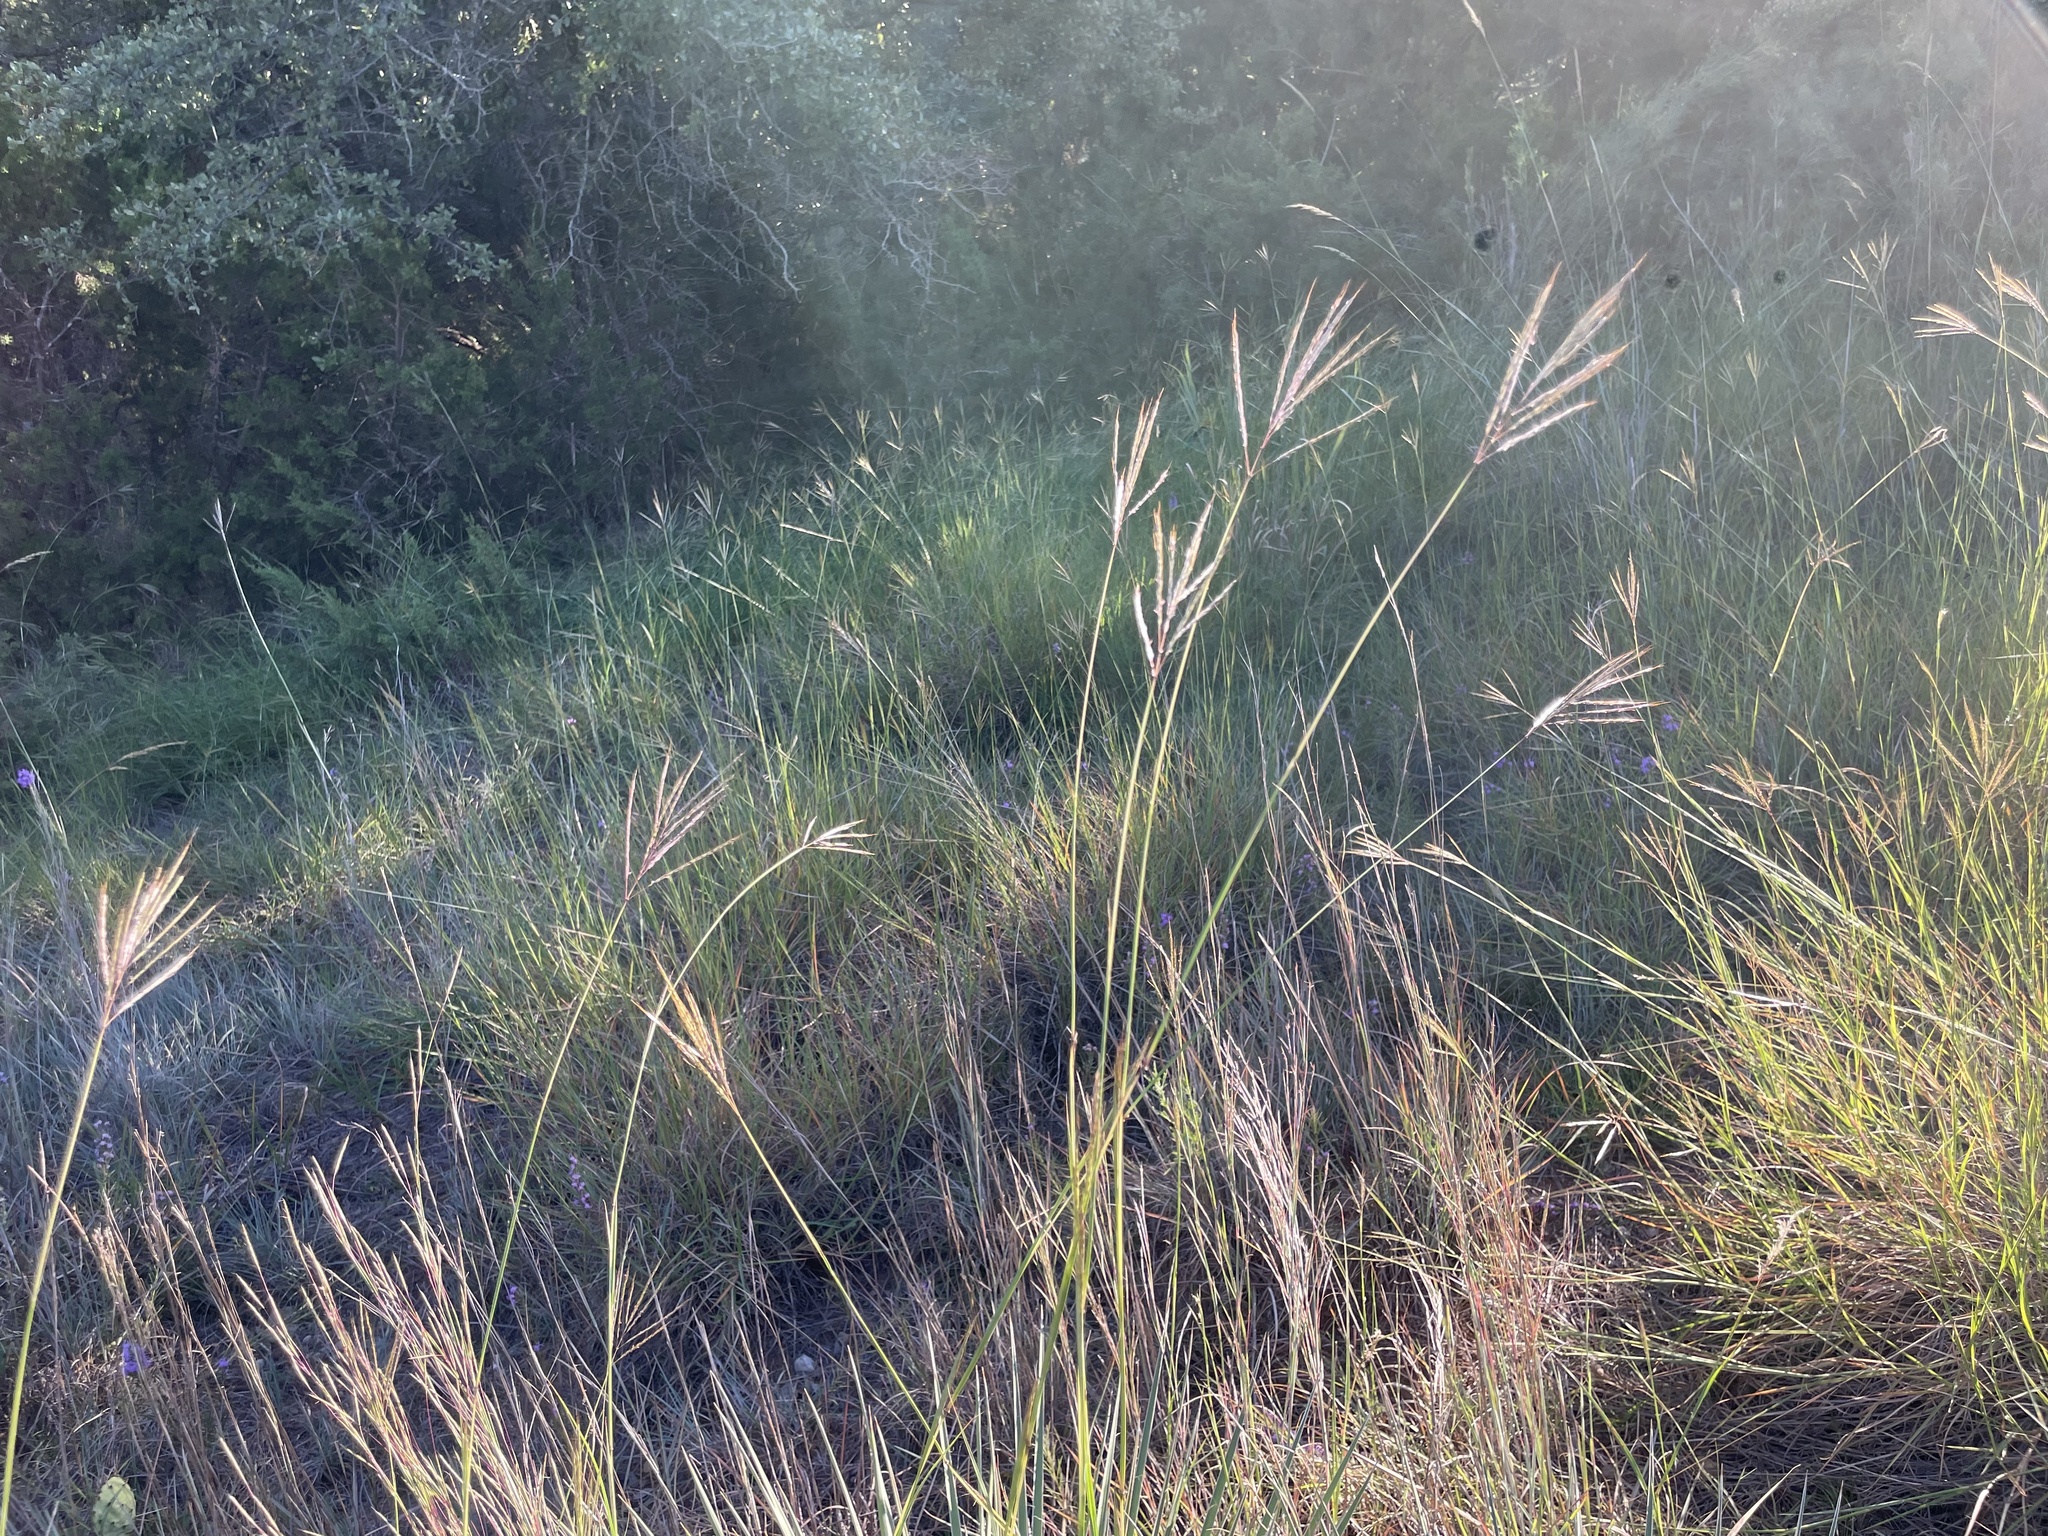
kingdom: Plantae
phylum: Tracheophyta
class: Liliopsida
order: Poales
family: Poaceae
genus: Bothriochloa
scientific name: Bothriochloa ischaemum
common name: Yellow bluestem
